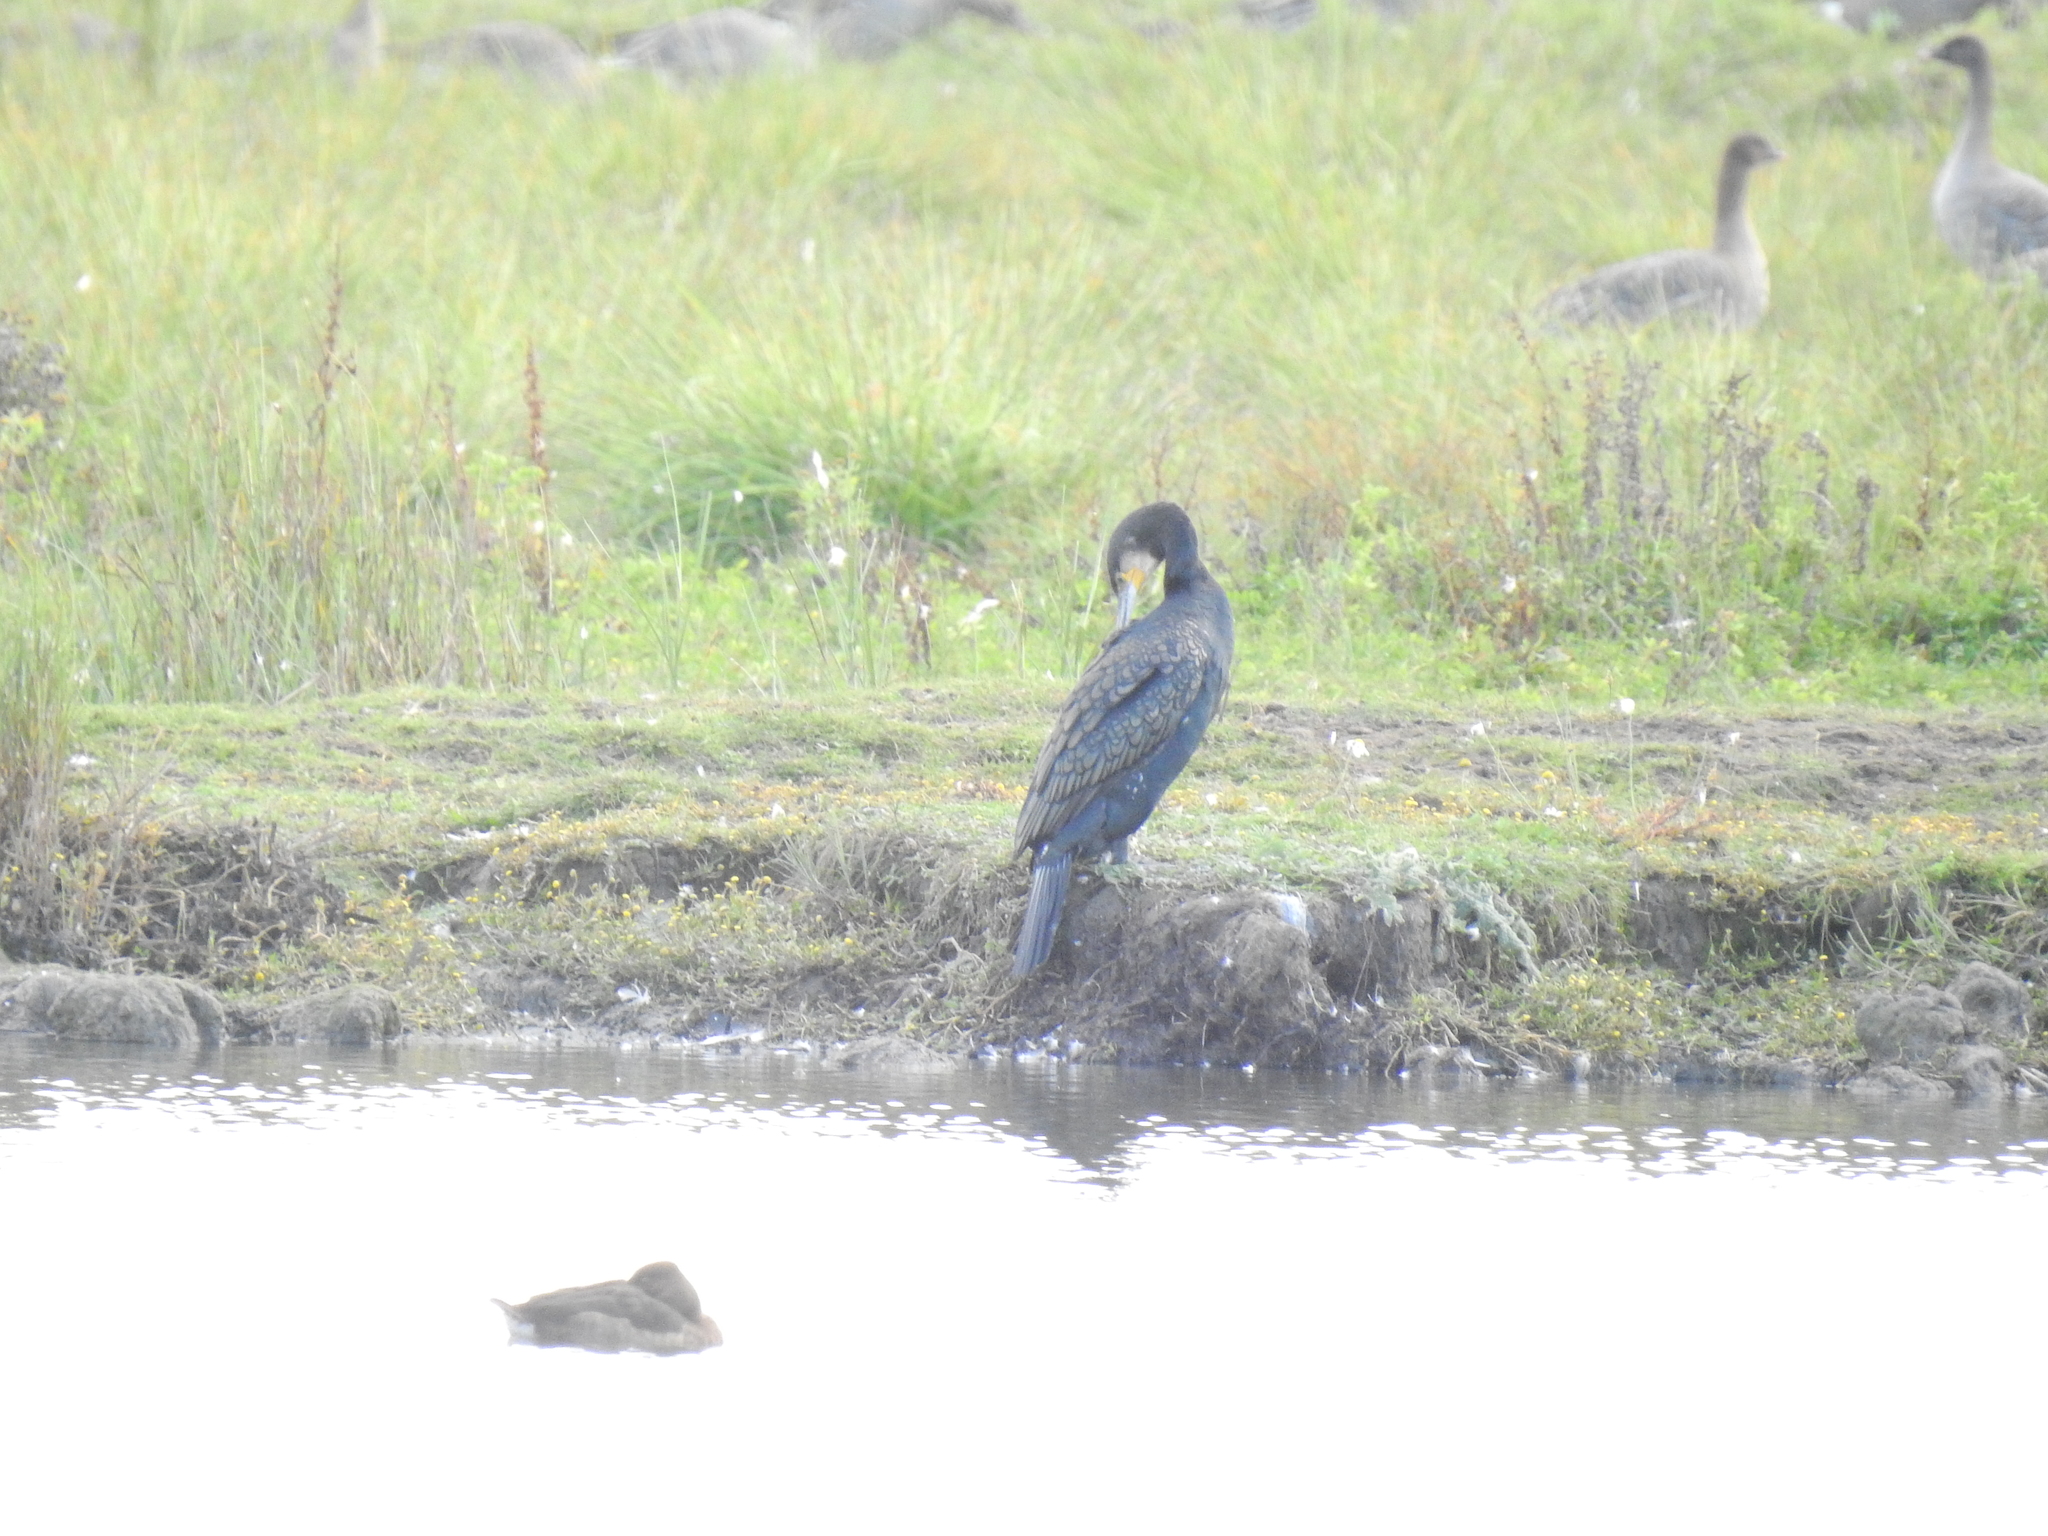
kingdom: Animalia
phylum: Chordata
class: Aves
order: Suliformes
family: Phalacrocoracidae
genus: Phalacrocorax
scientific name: Phalacrocorax carbo
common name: Great cormorant
